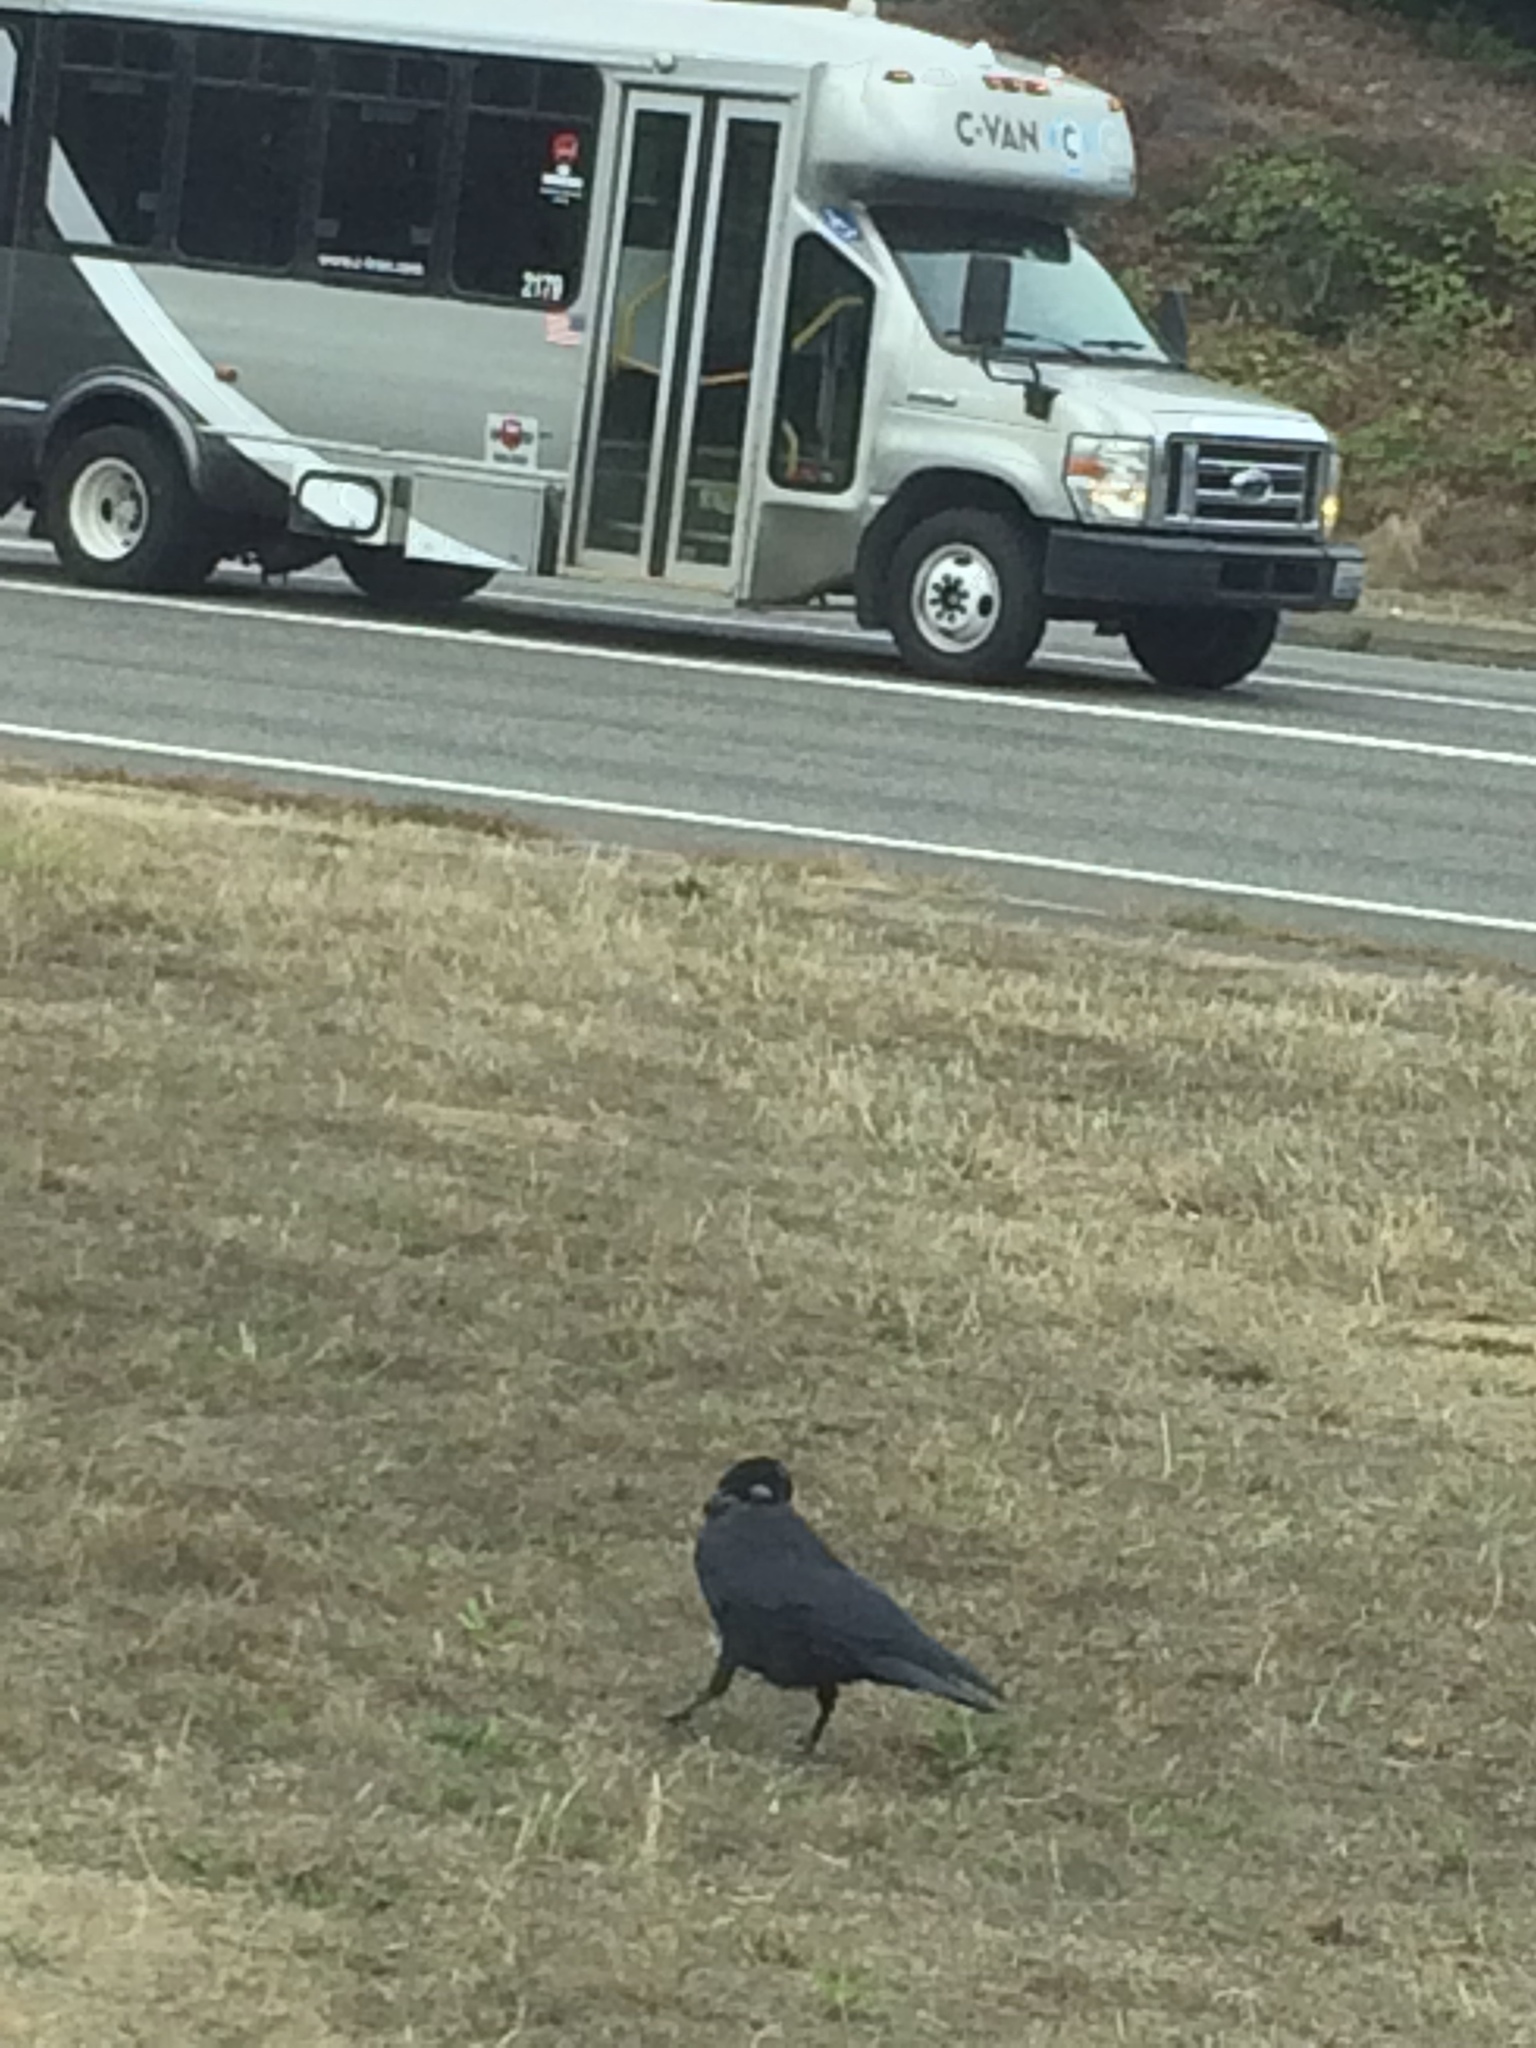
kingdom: Animalia
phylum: Chordata
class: Aves
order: Passeriformes
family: Corvidae
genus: Corvus
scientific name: Corvus brachyrhynchos
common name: American crow
